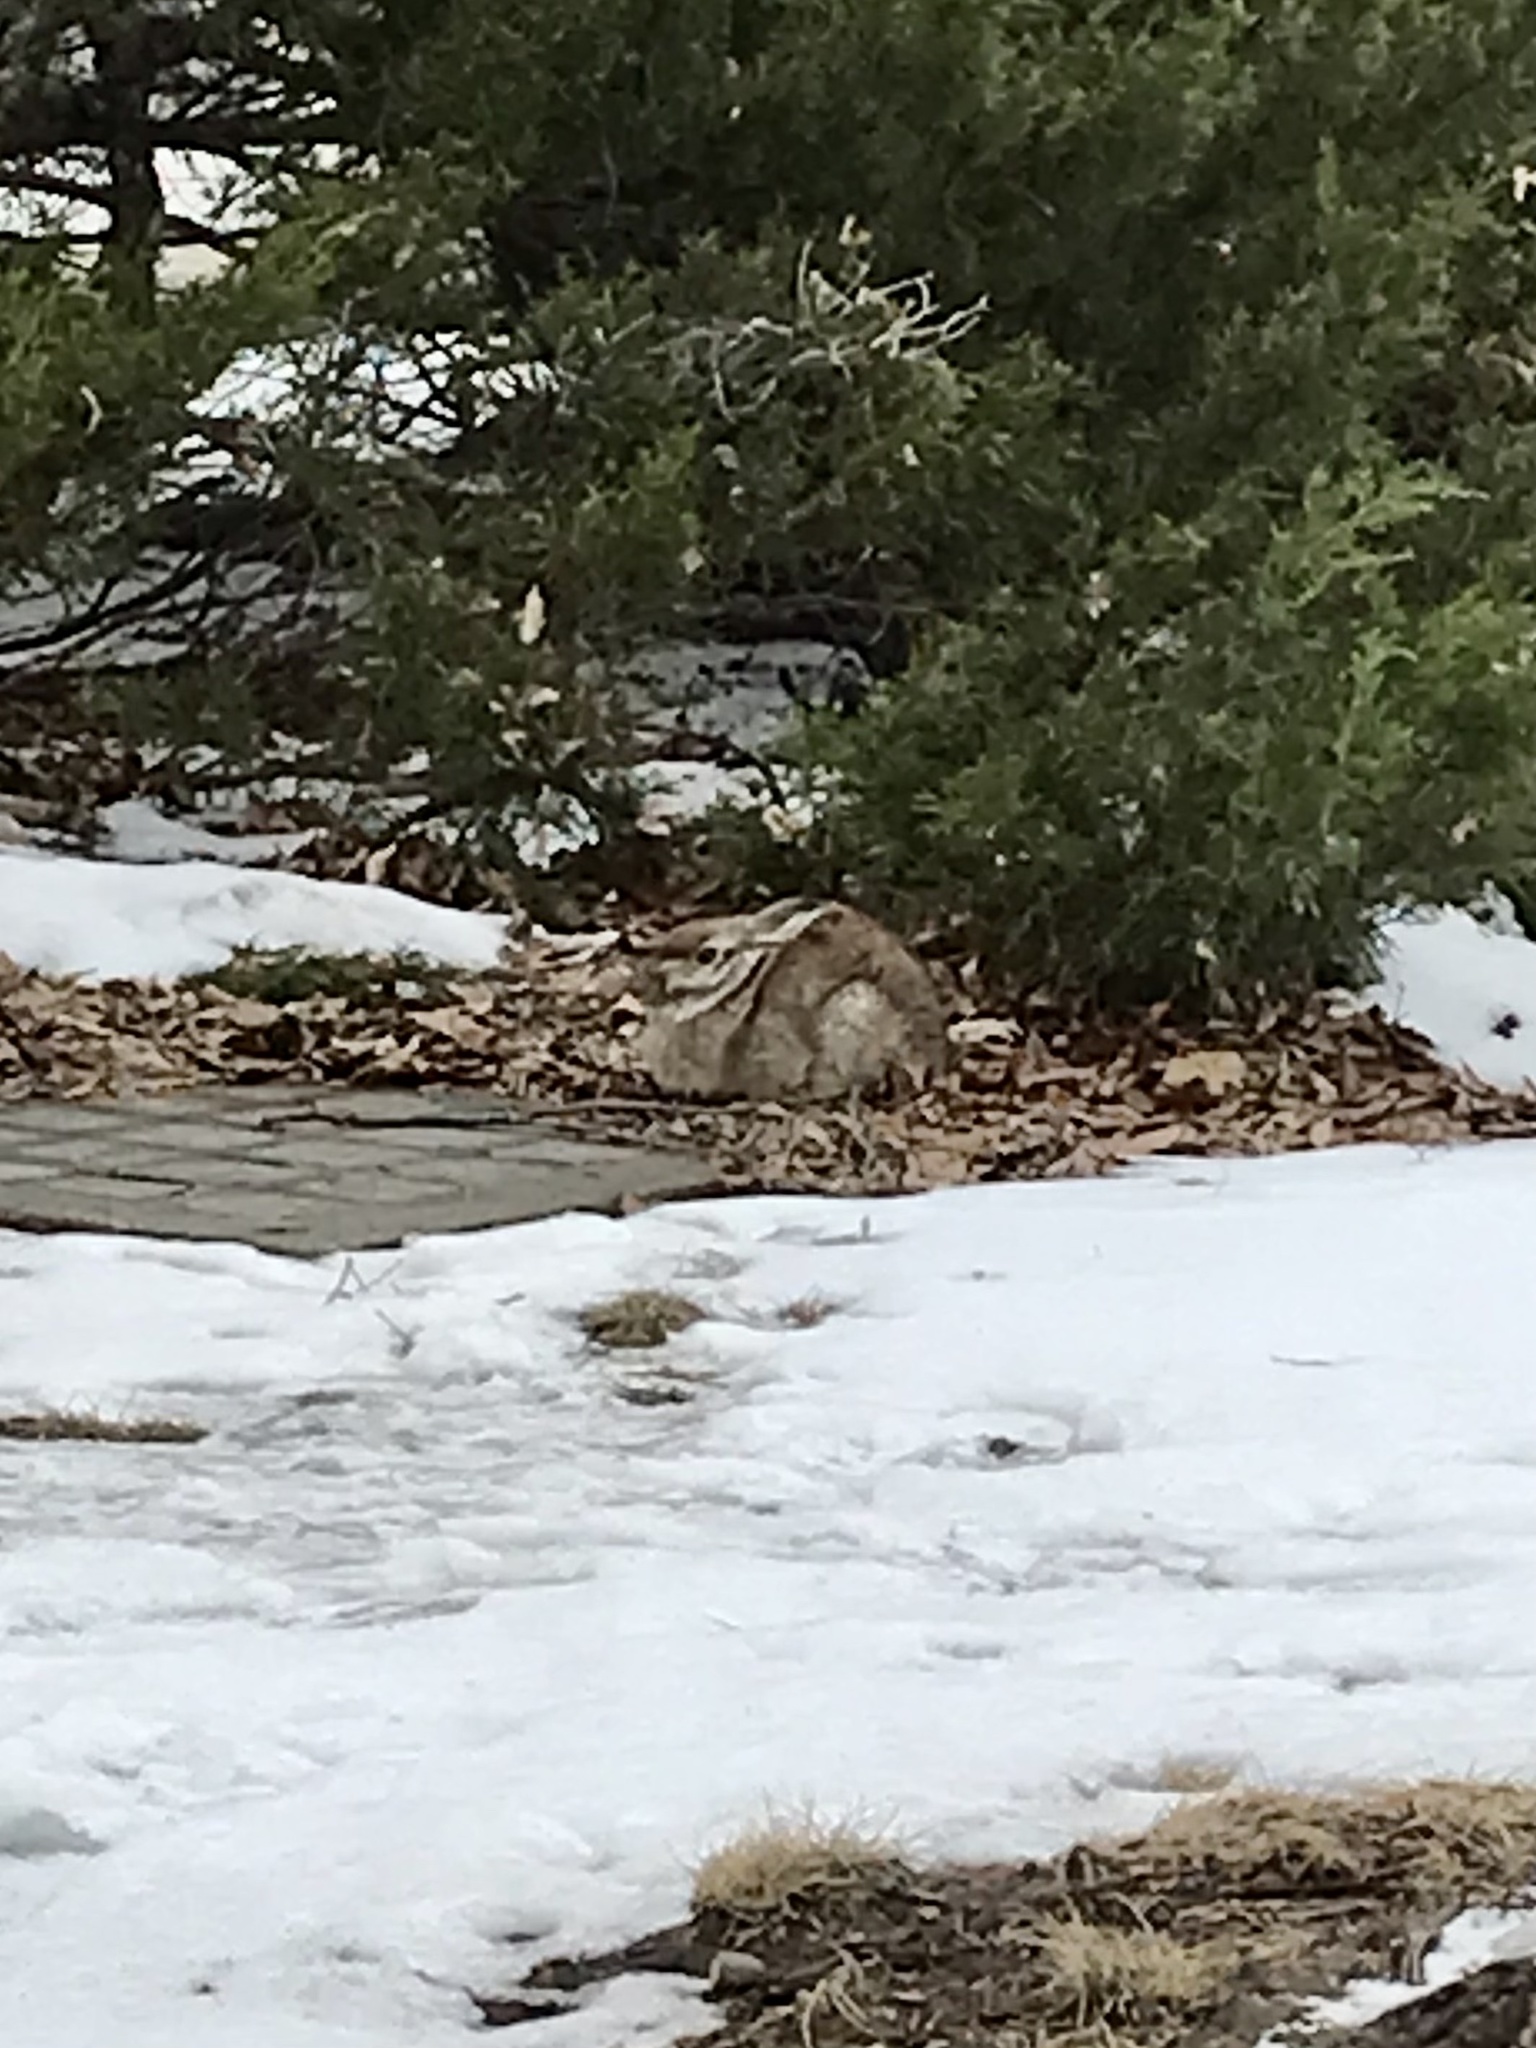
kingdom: Animalia
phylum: Chordata
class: Mammalia
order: Lagomorpha
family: Leporidae
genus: Sylvilagus
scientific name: Sylvilagus floridanus
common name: Eastern cottontail
